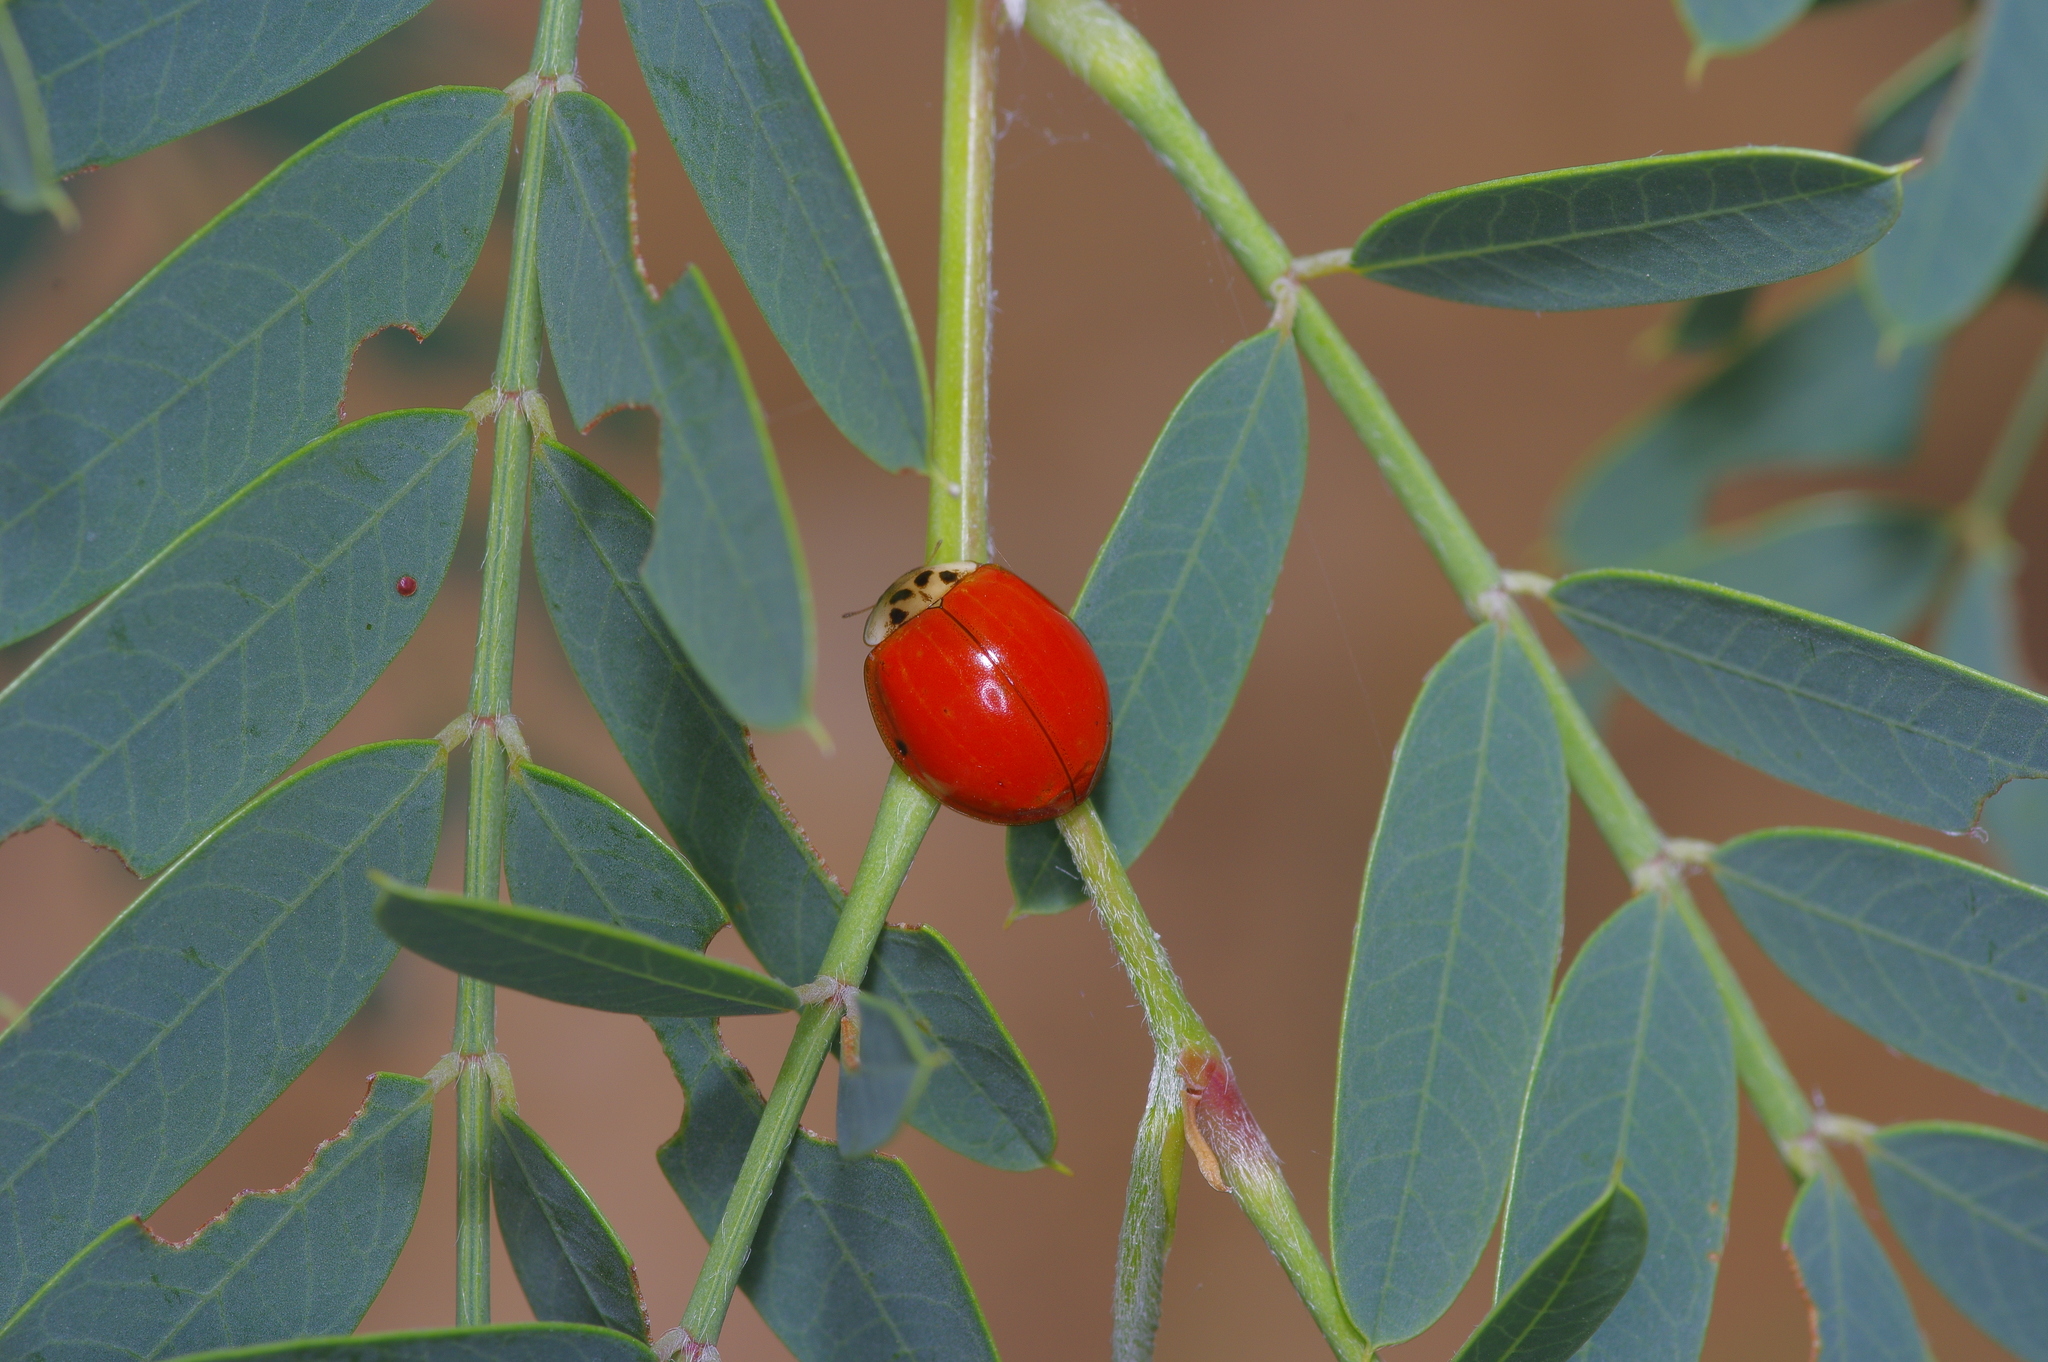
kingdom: Animalia
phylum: Arthropoda
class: Insecta
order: Coleoptera
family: Coccinellidae
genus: Harmonia
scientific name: Harmonia axyridis
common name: Harlequin ladybird
